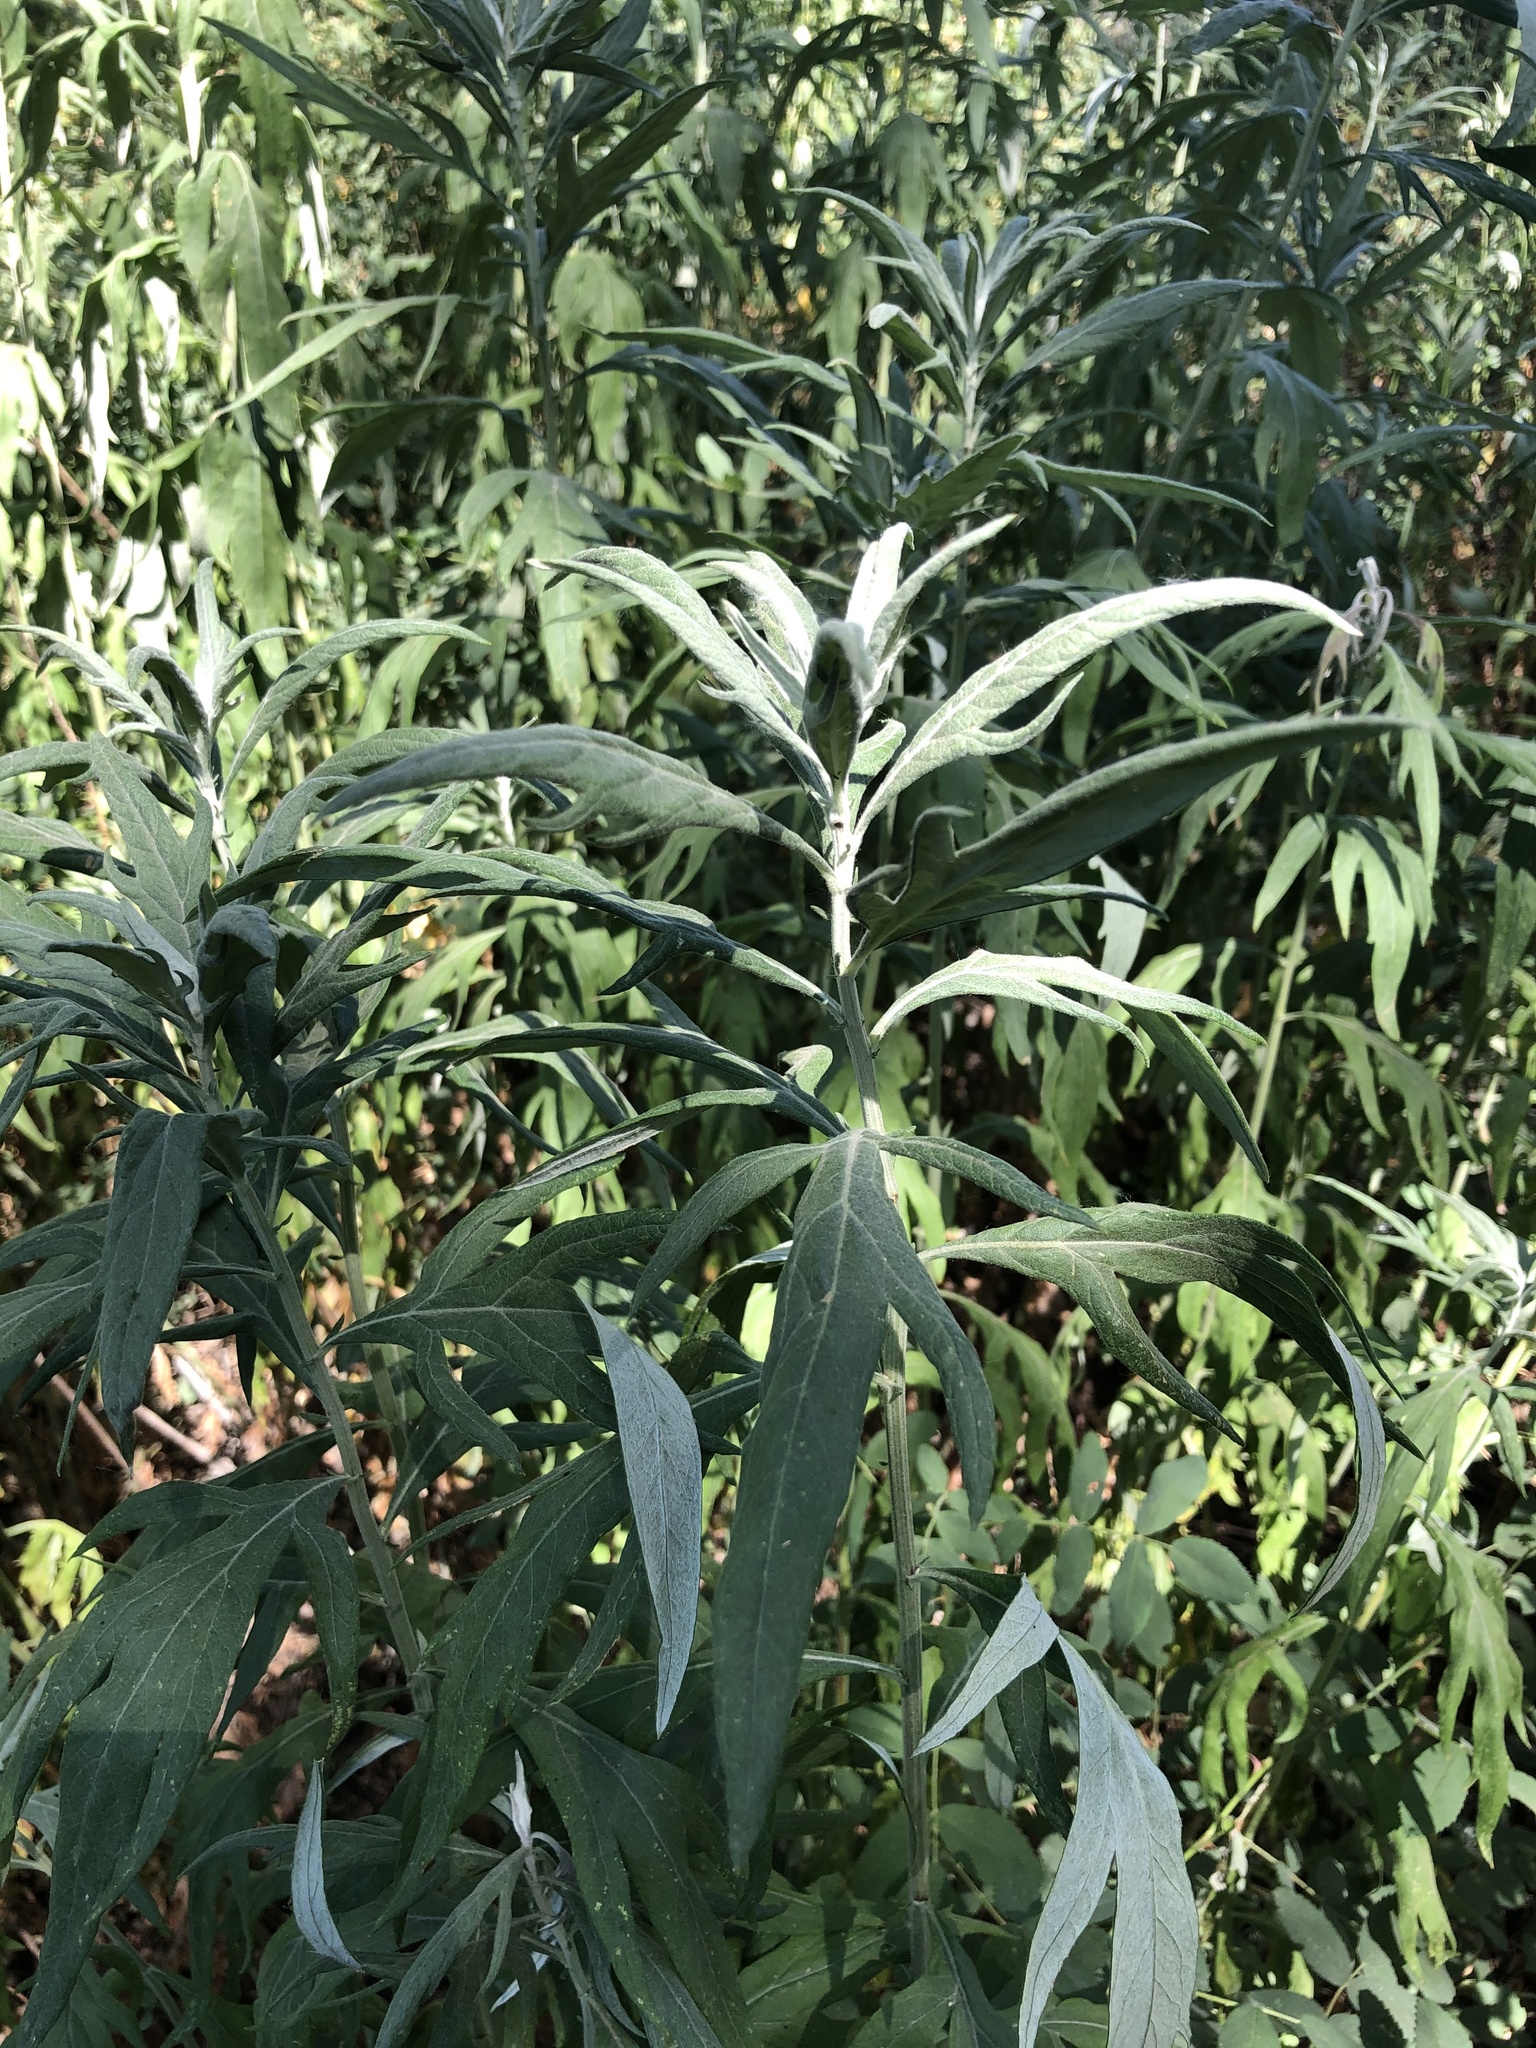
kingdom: Plantae
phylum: Tracheophyta
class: Magnoliopsida
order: Asterales
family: Asteraceae
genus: Artemisia
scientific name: Artemisia douglasiana
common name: Northwest mugwort
